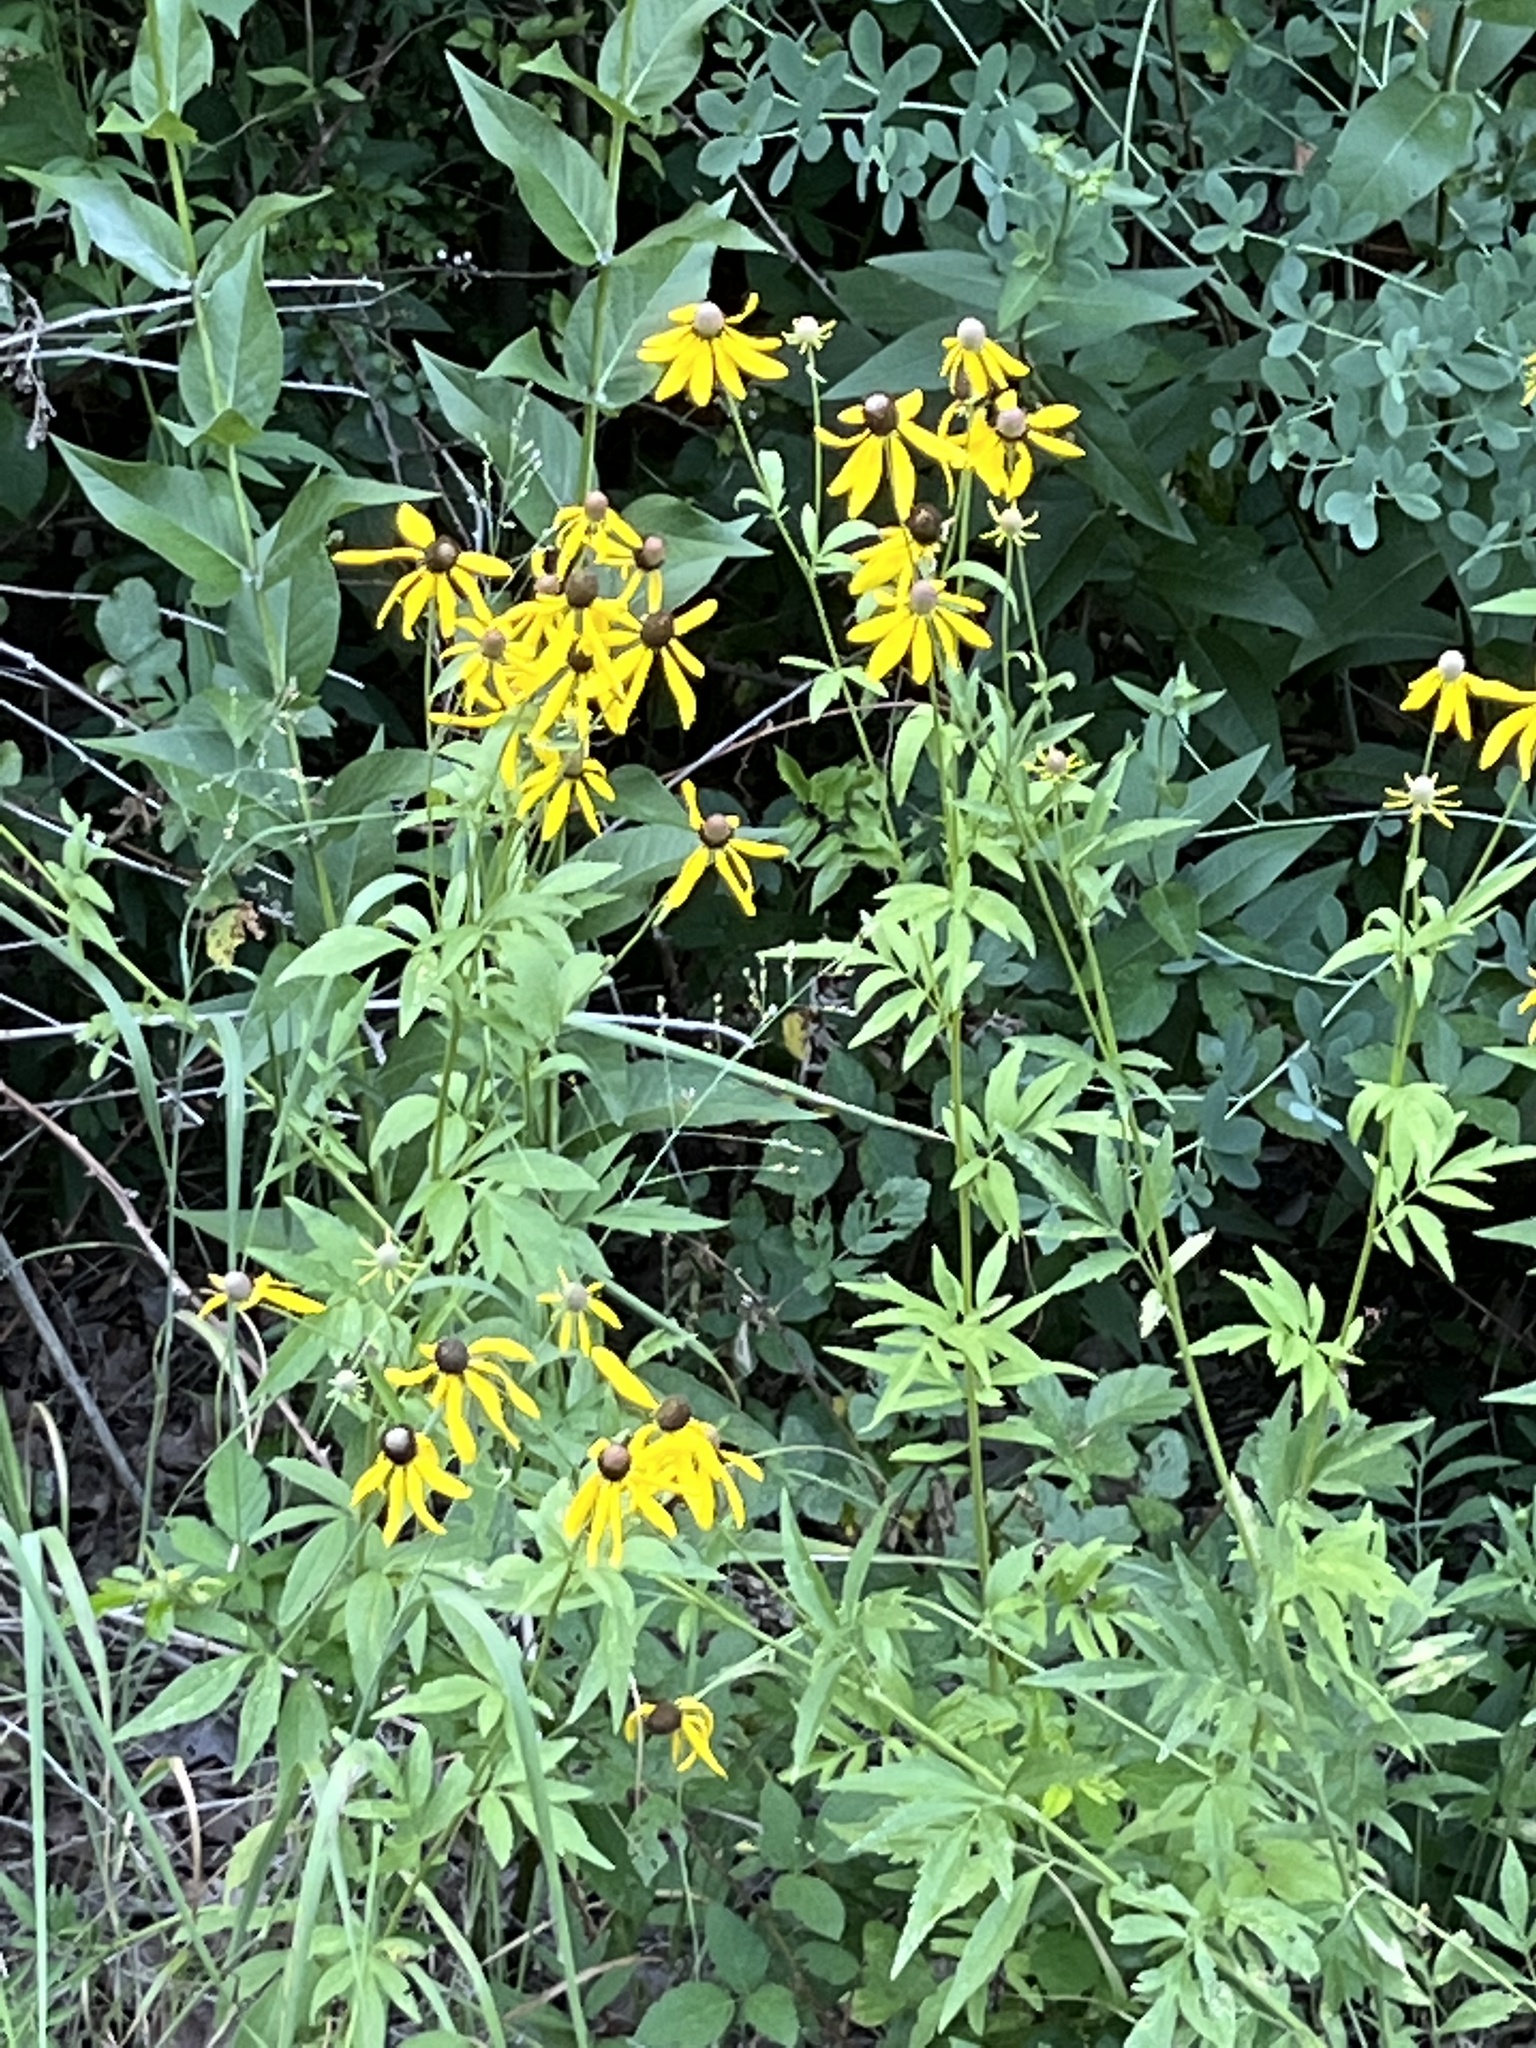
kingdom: Plantae
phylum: Tracheophyta
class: Magnoliopsida
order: Asterales
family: Asteraceae
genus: Rudbeckia
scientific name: Rudbeckia laciniata
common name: Coneflower
